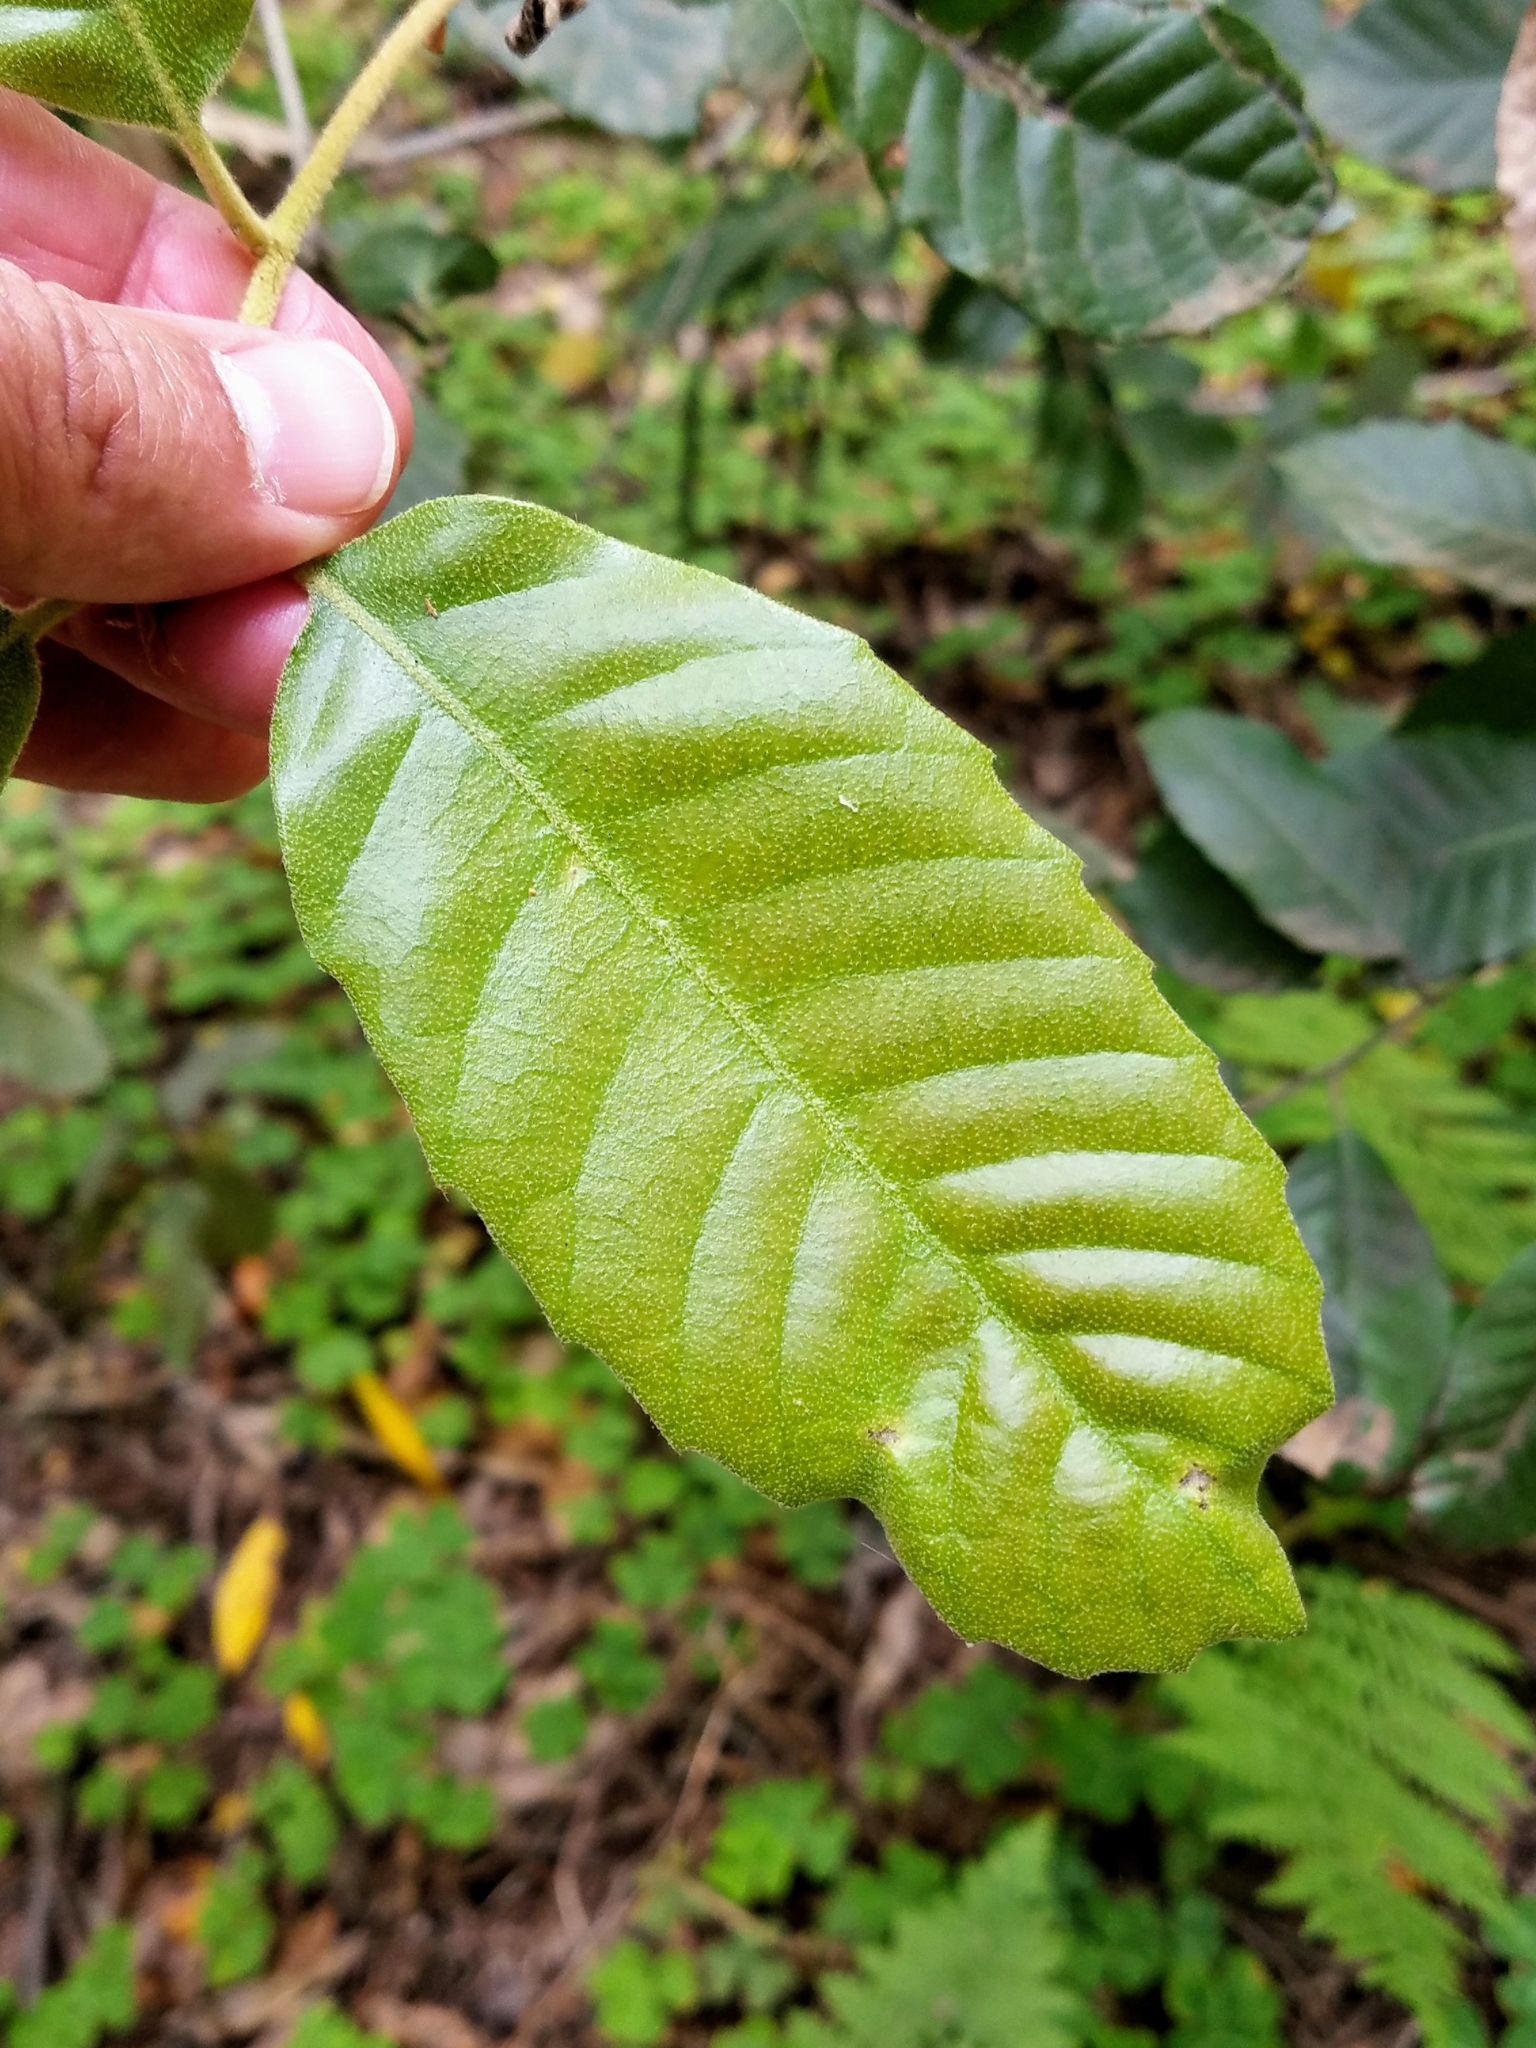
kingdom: Plantae
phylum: Tracheophyta
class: Magnoliopsida
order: Fagales
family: Fagaceae
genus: Notholithocarpus
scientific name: Notholithocarpus densiflorus
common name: Tan bark oak
